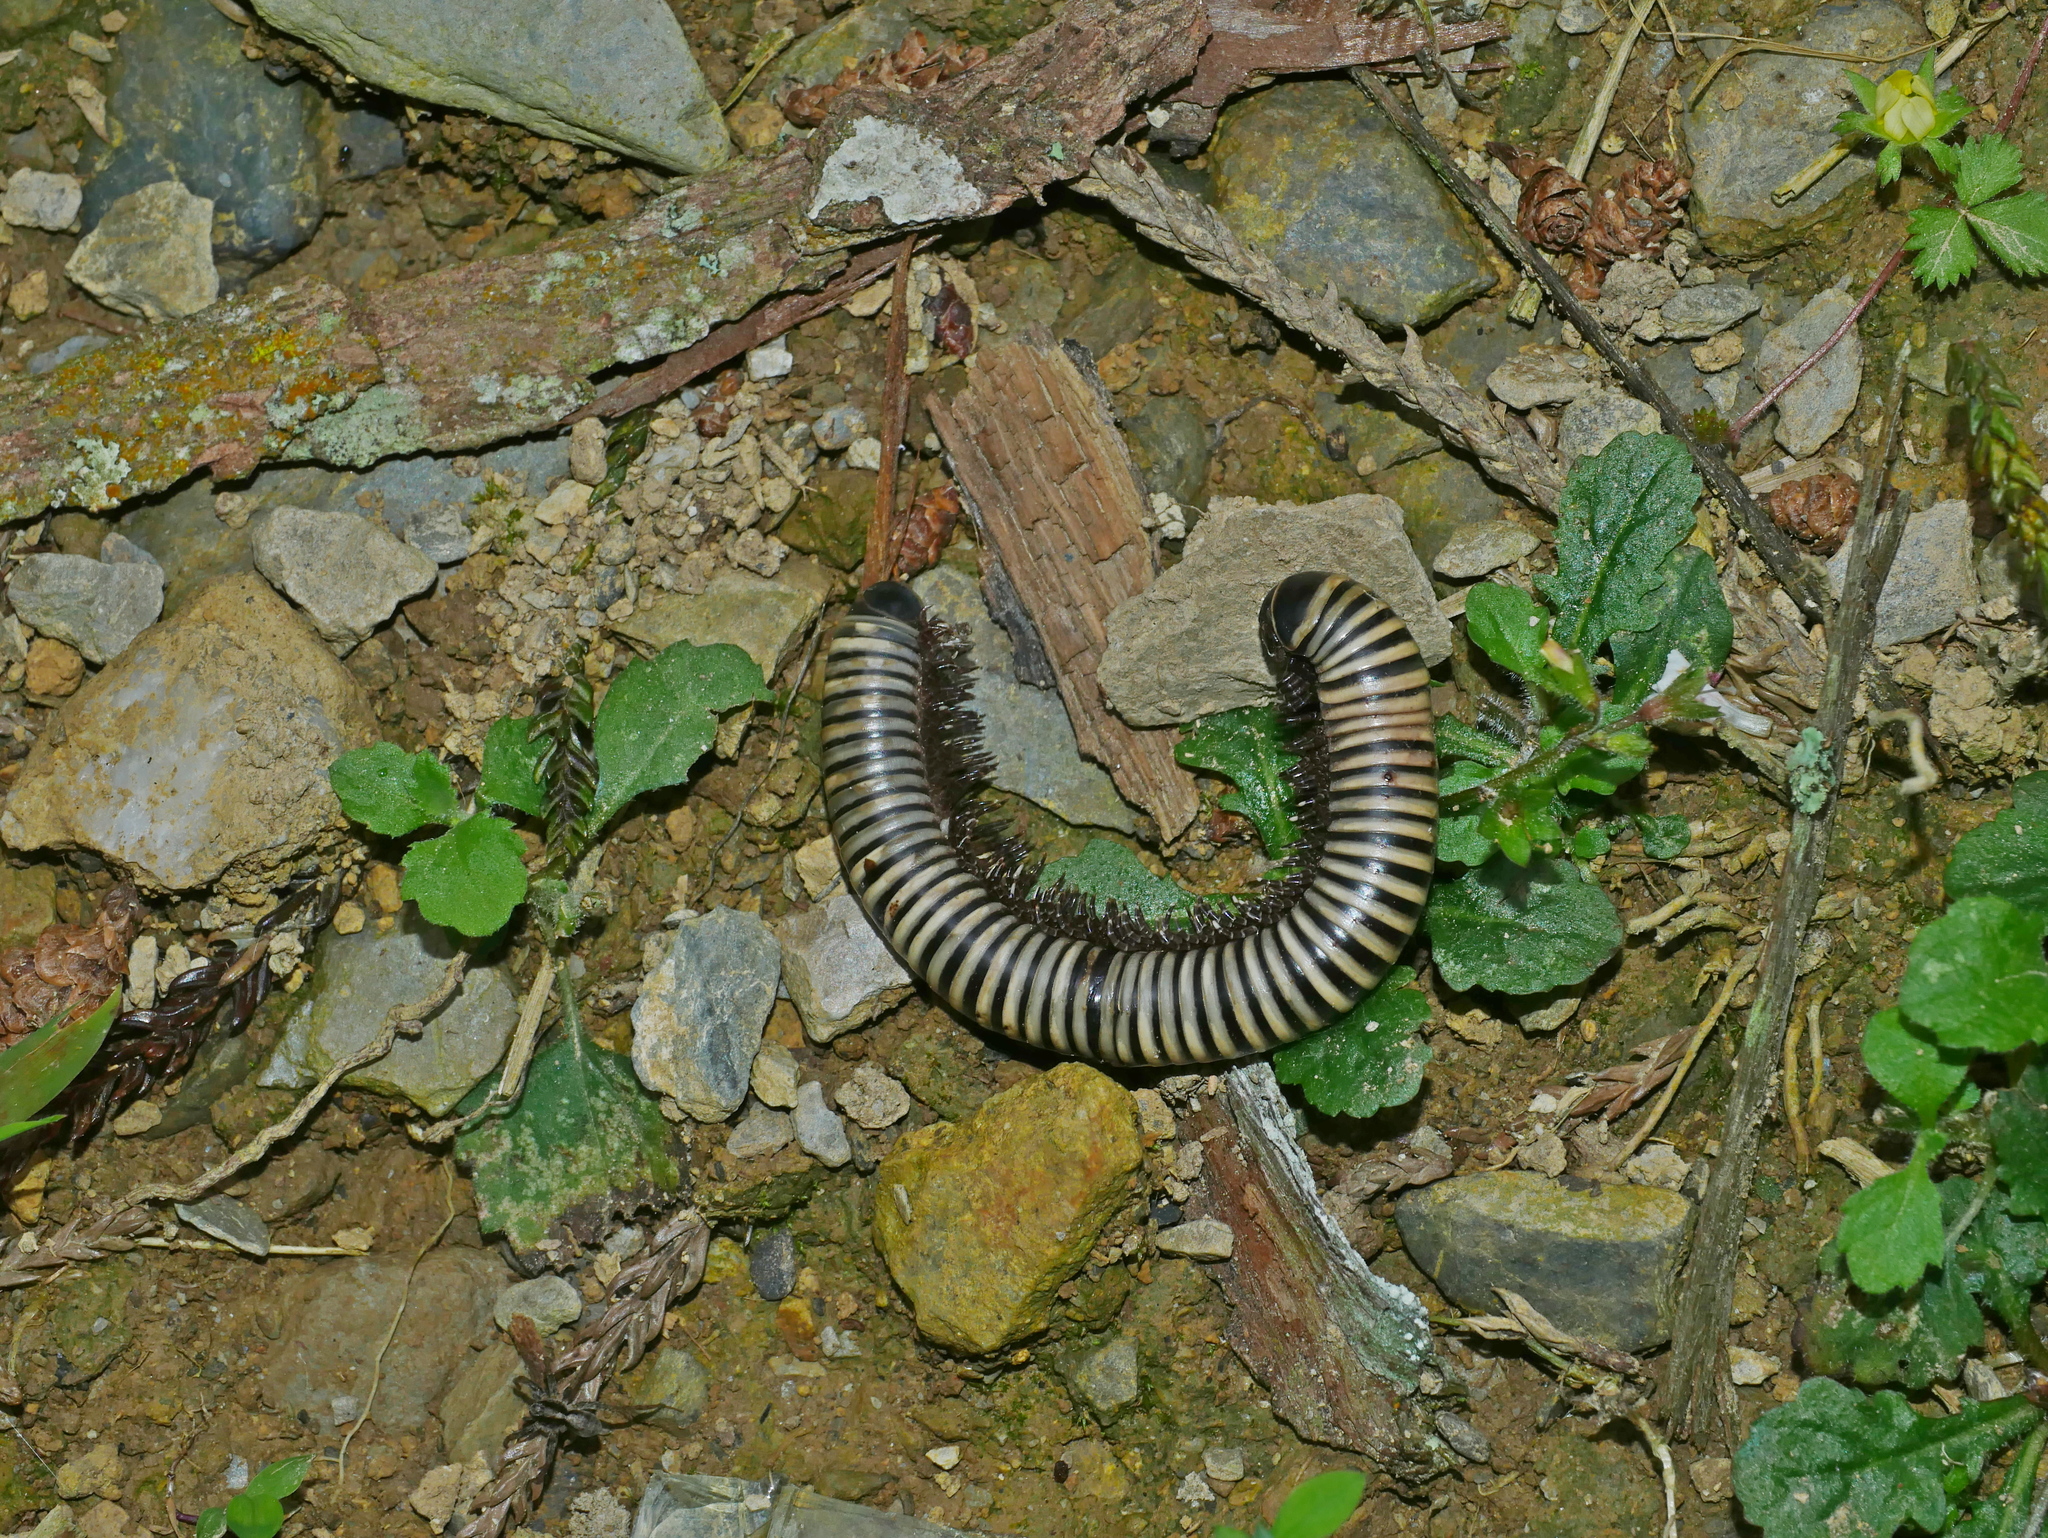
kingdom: Animalia
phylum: Arthropoda
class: Diplopoda
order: Spirobolida
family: Spirobolidae
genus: Spirobolus
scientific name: Spirobolus
